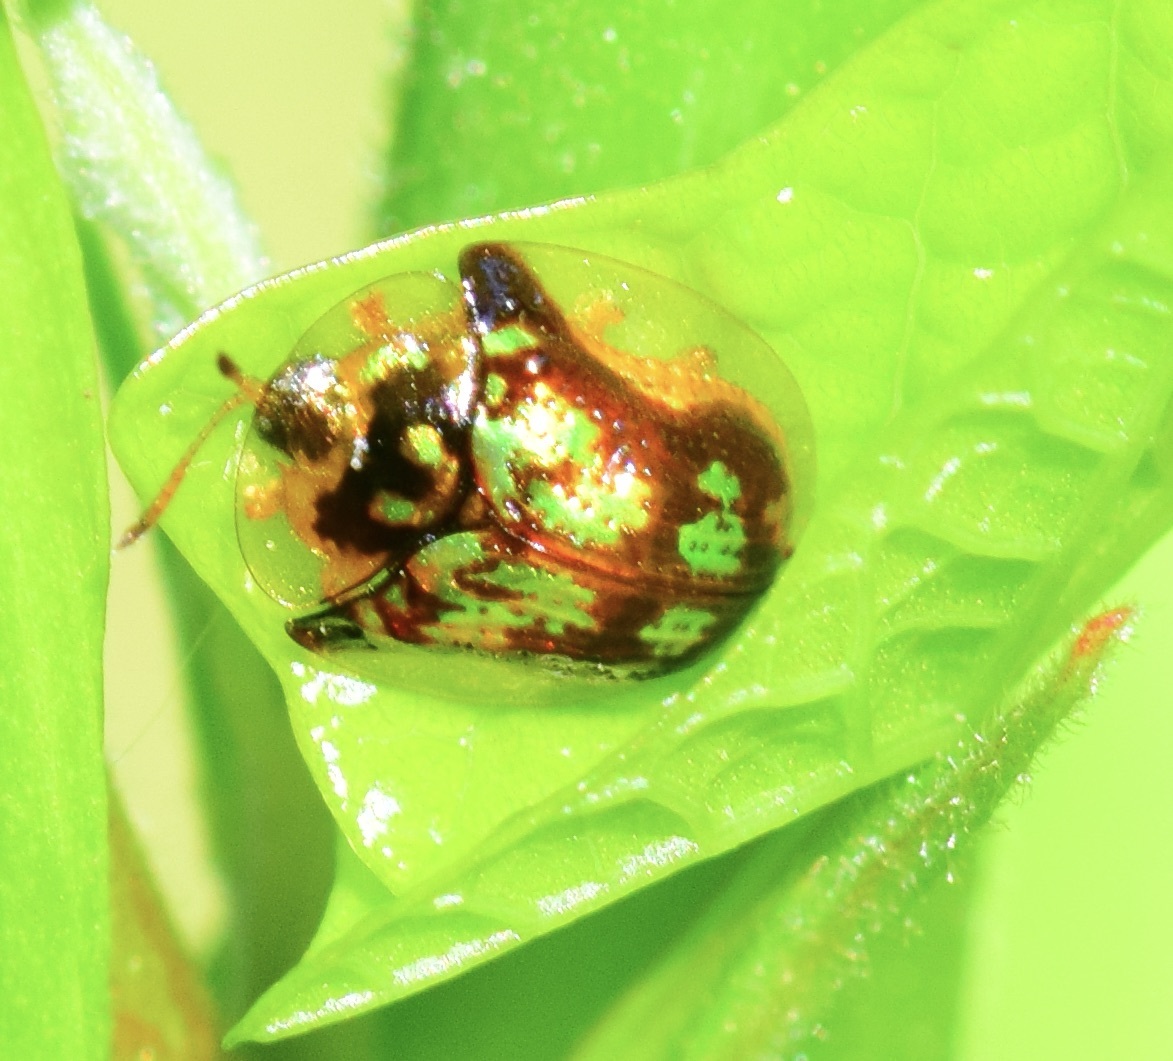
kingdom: Animalia
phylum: Arthropoda
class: Insecta
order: Coleoptera
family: Chrysomelidae
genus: Deloyala
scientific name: Deloyala guttata
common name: Mottled tortoise beetle
